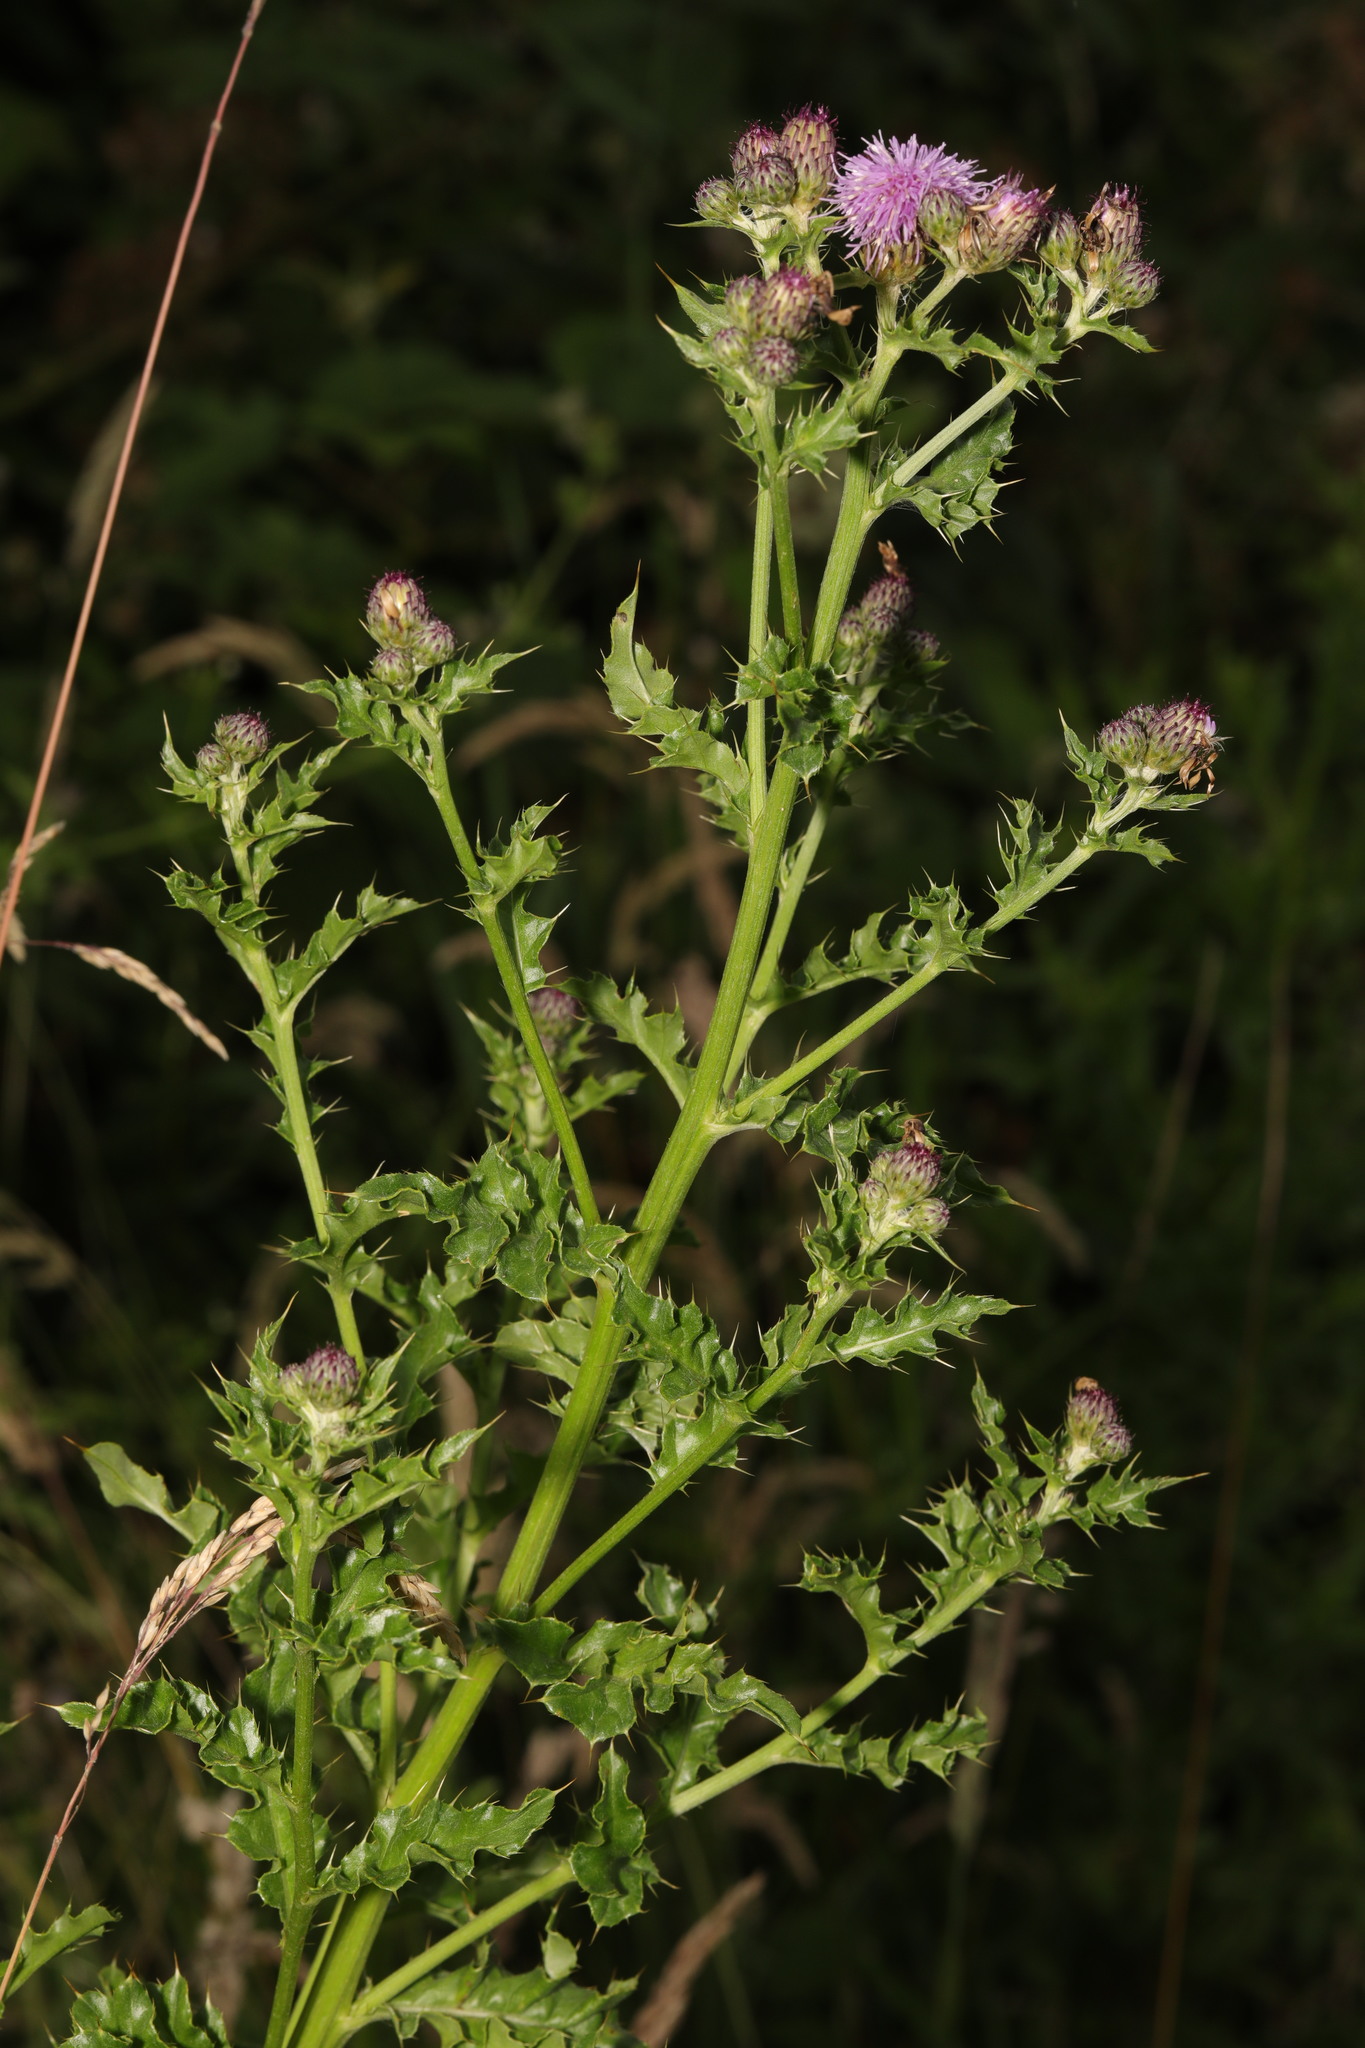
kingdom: Plantae
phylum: Tracheophyta
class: Magnoliopsida
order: Asterales
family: Asteraceae
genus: Cirsium
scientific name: Cirsium arvense
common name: Creeping thistle
